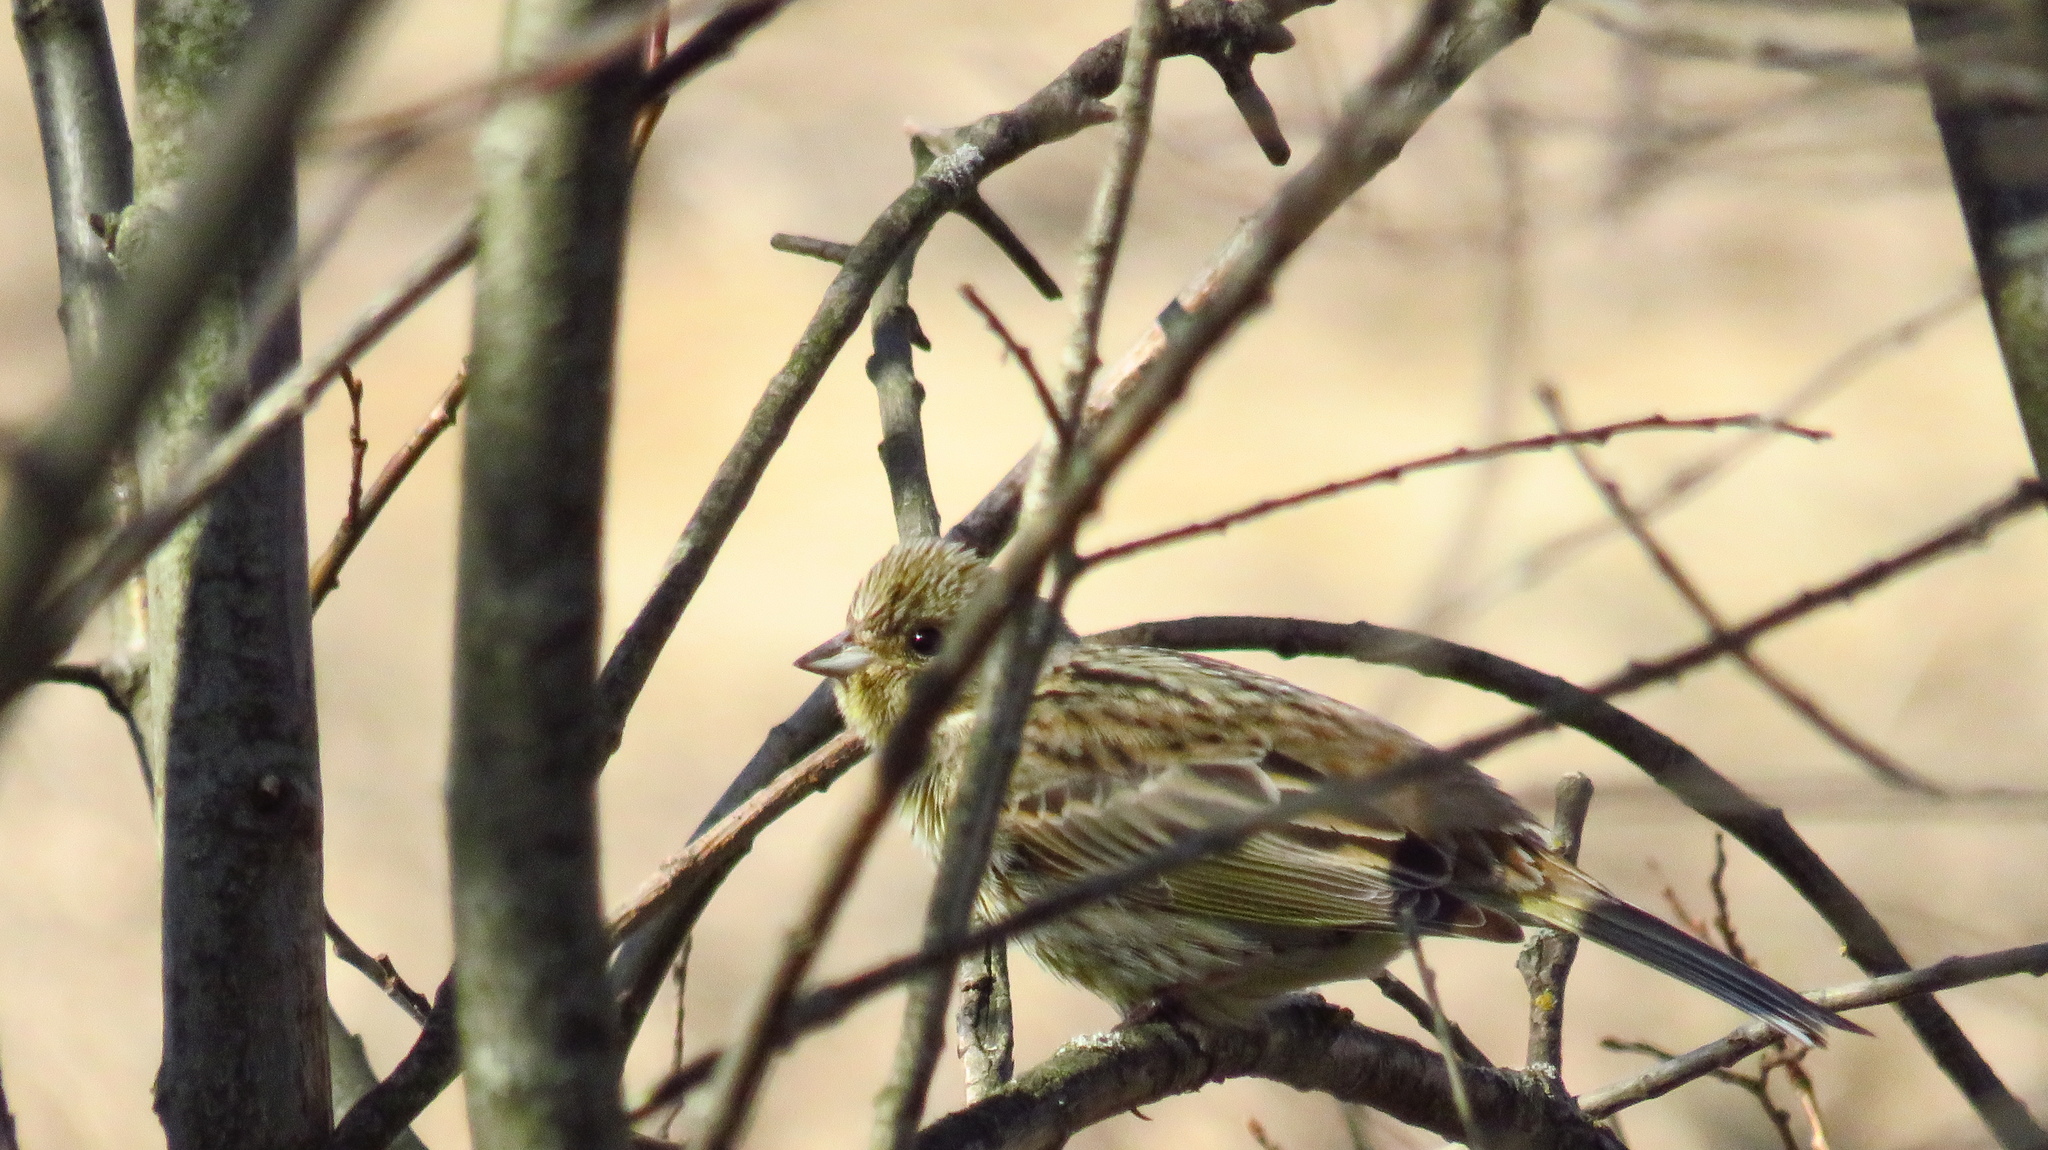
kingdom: Animalia
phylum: Chordata
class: Aves
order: Passeriformes
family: Emberizidae
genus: Emberiza
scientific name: Emberiza citrinella
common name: Yellowhammer
